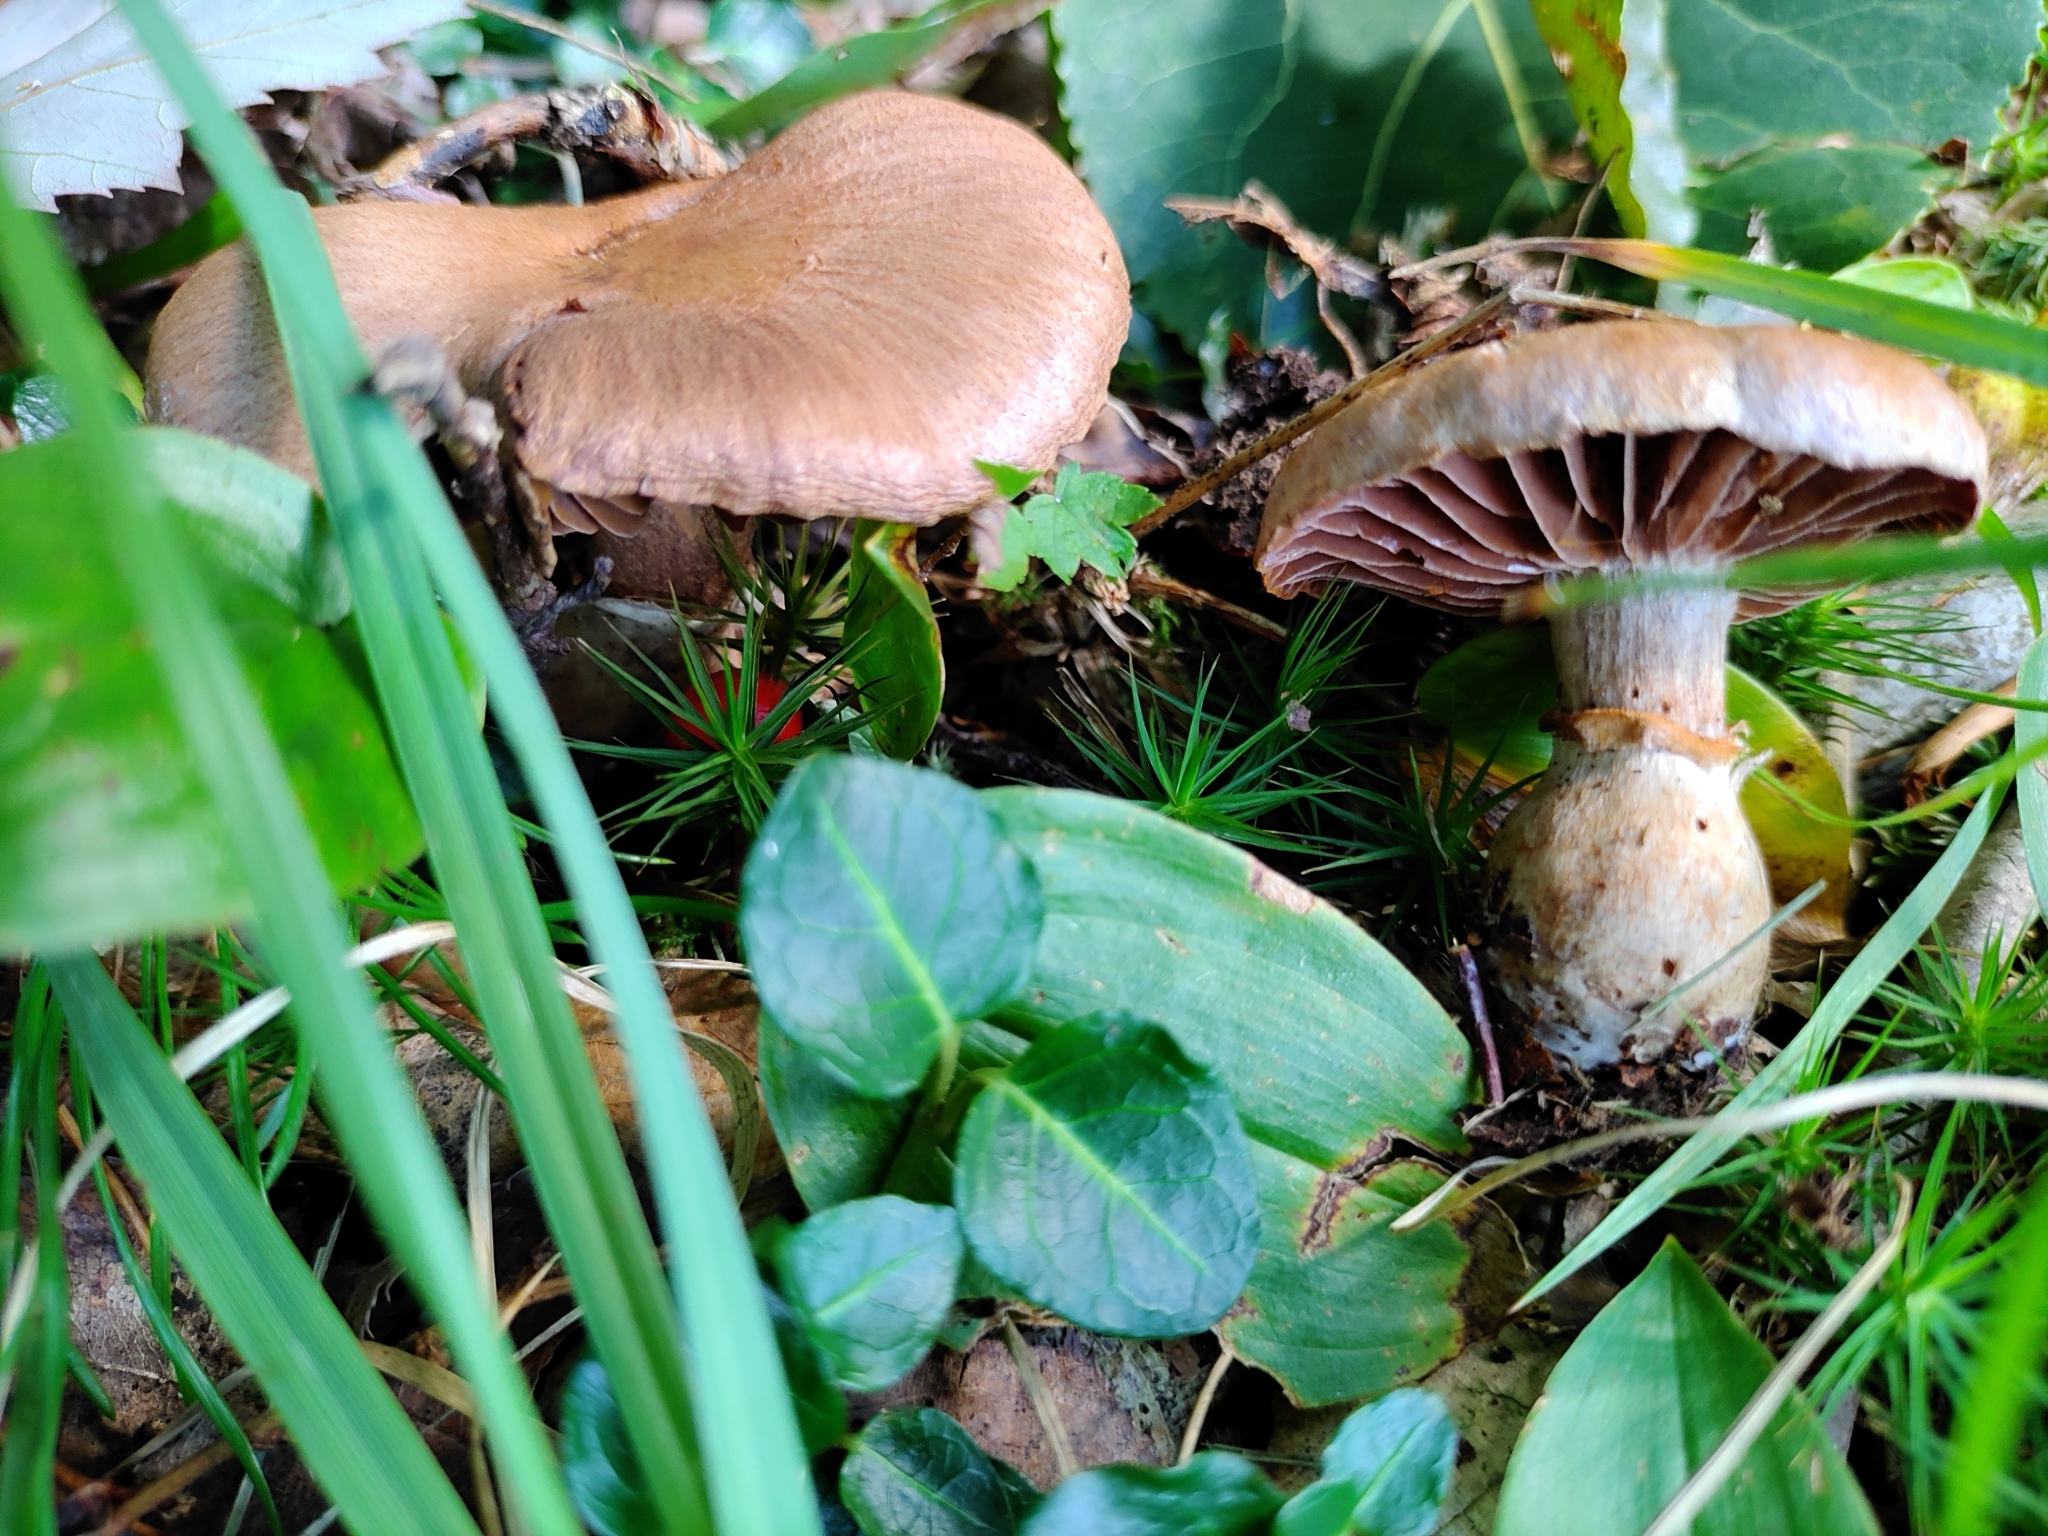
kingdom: Fungi
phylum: Basidiomycota
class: Agaricomycetes
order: Agaricales
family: Cortinariaceae
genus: Cortinarius
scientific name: Cortinarius torvus
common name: Stocking webcap
